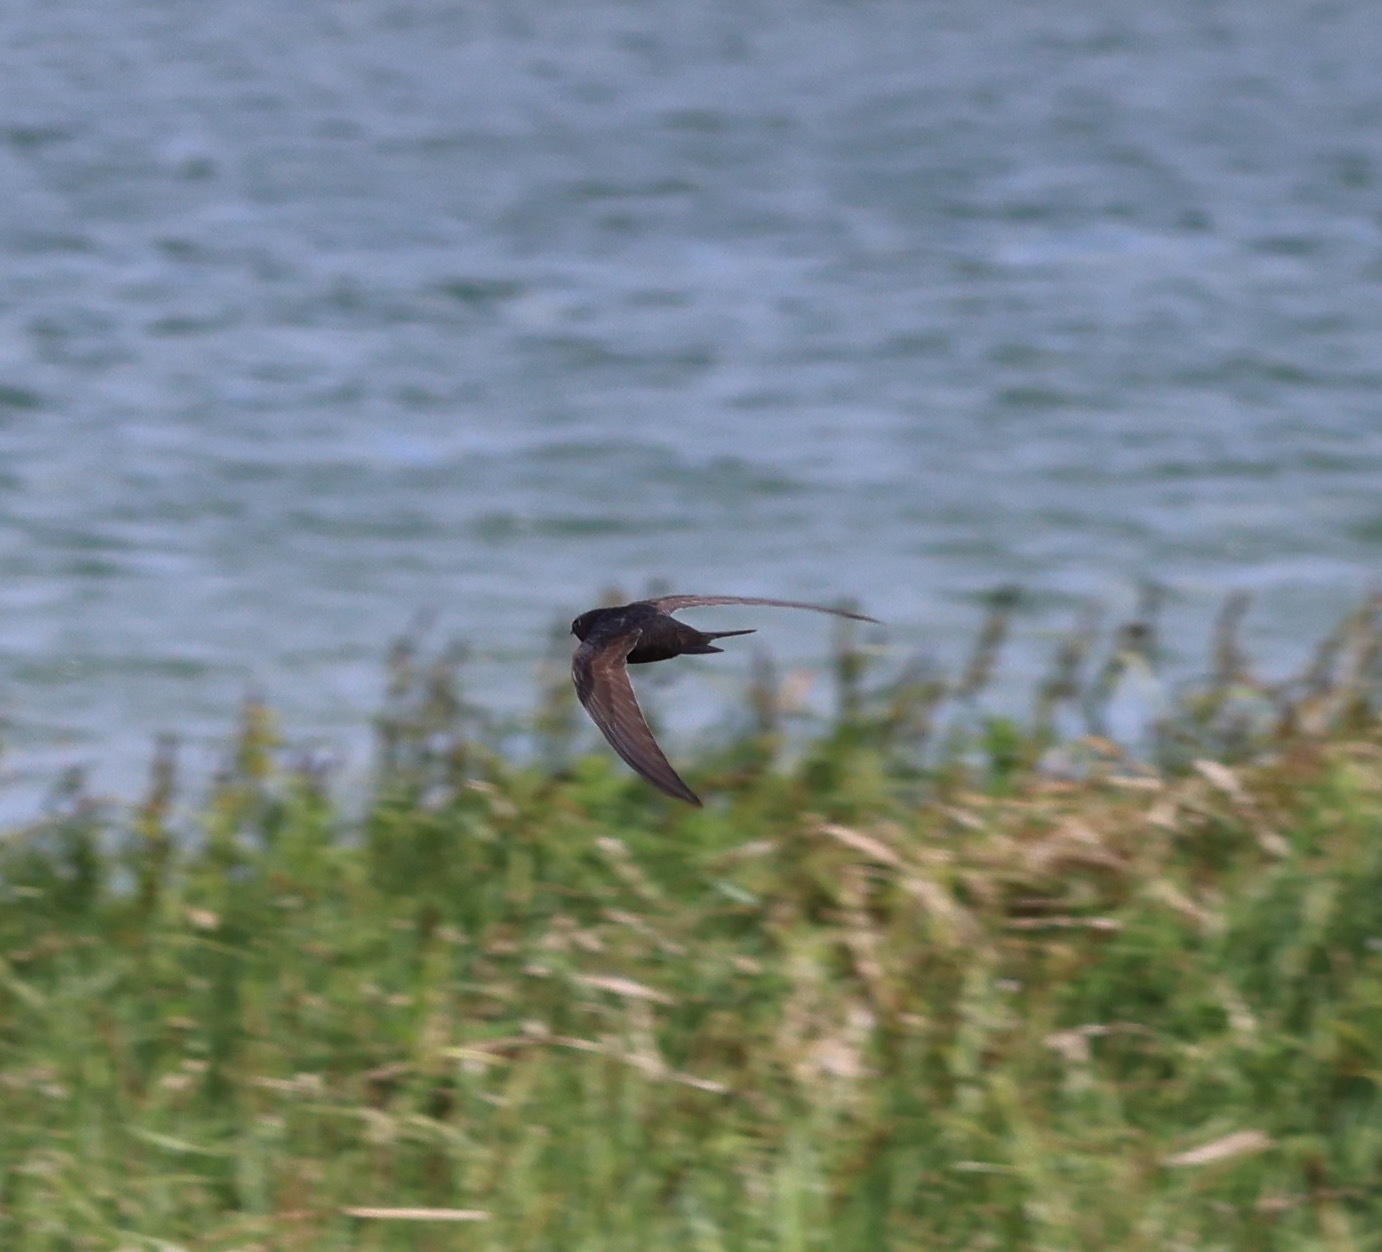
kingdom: Animalia
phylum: Chordata
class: Aves
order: Apodiformes
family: Apodidae
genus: Apus
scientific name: Apus apus
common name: Common swift
